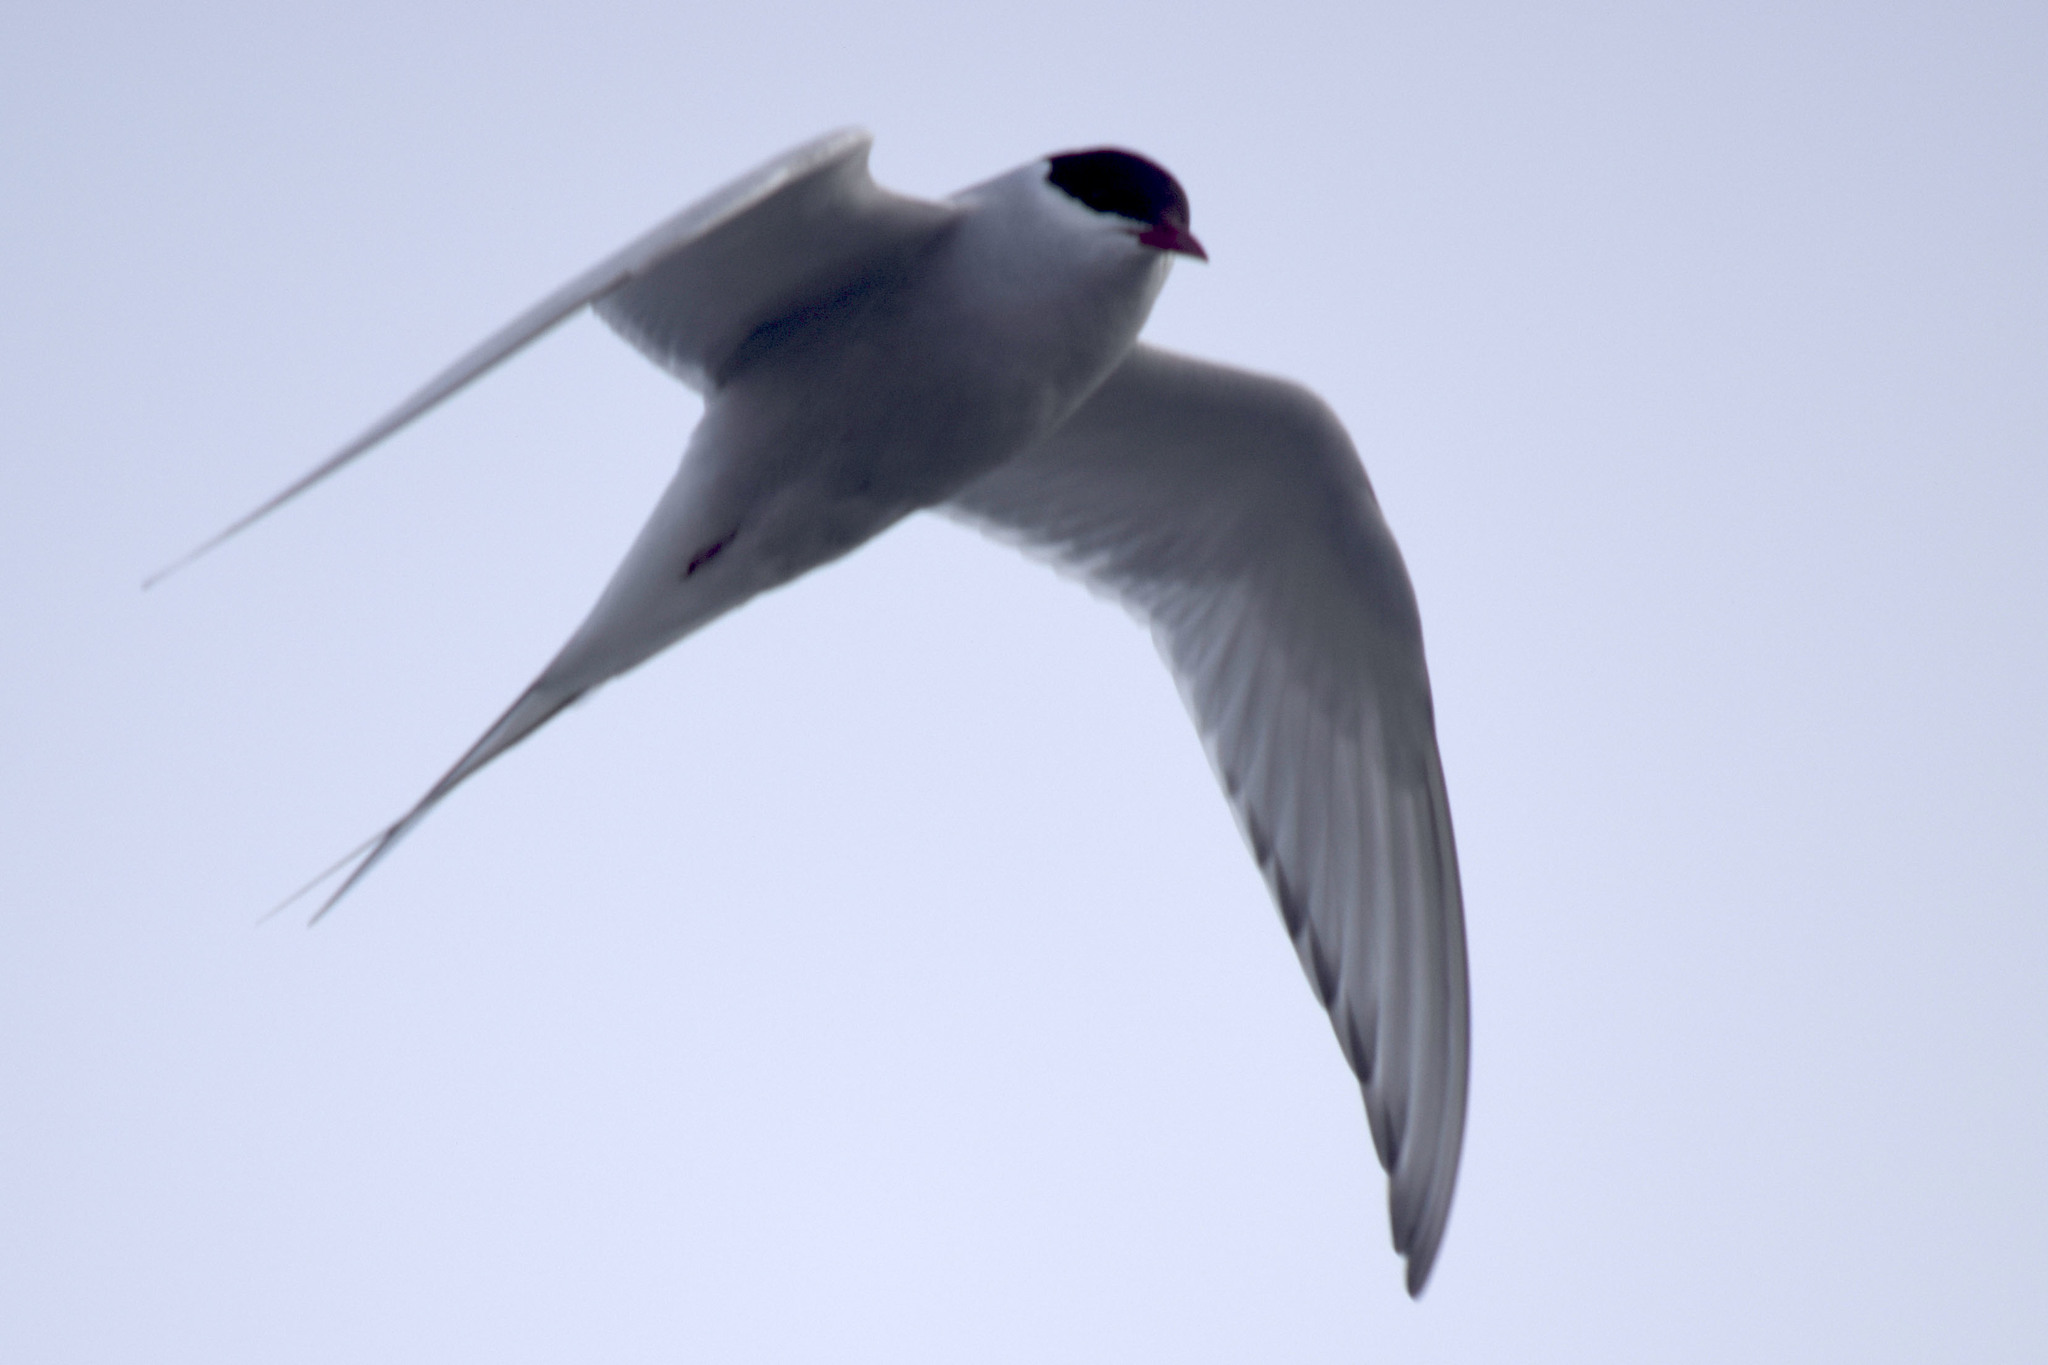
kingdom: Animalia
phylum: Chordata
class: Aves
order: Charadriiformes
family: Laridae
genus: Sterna
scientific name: Sterna paradisaea
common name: Arctic tern
